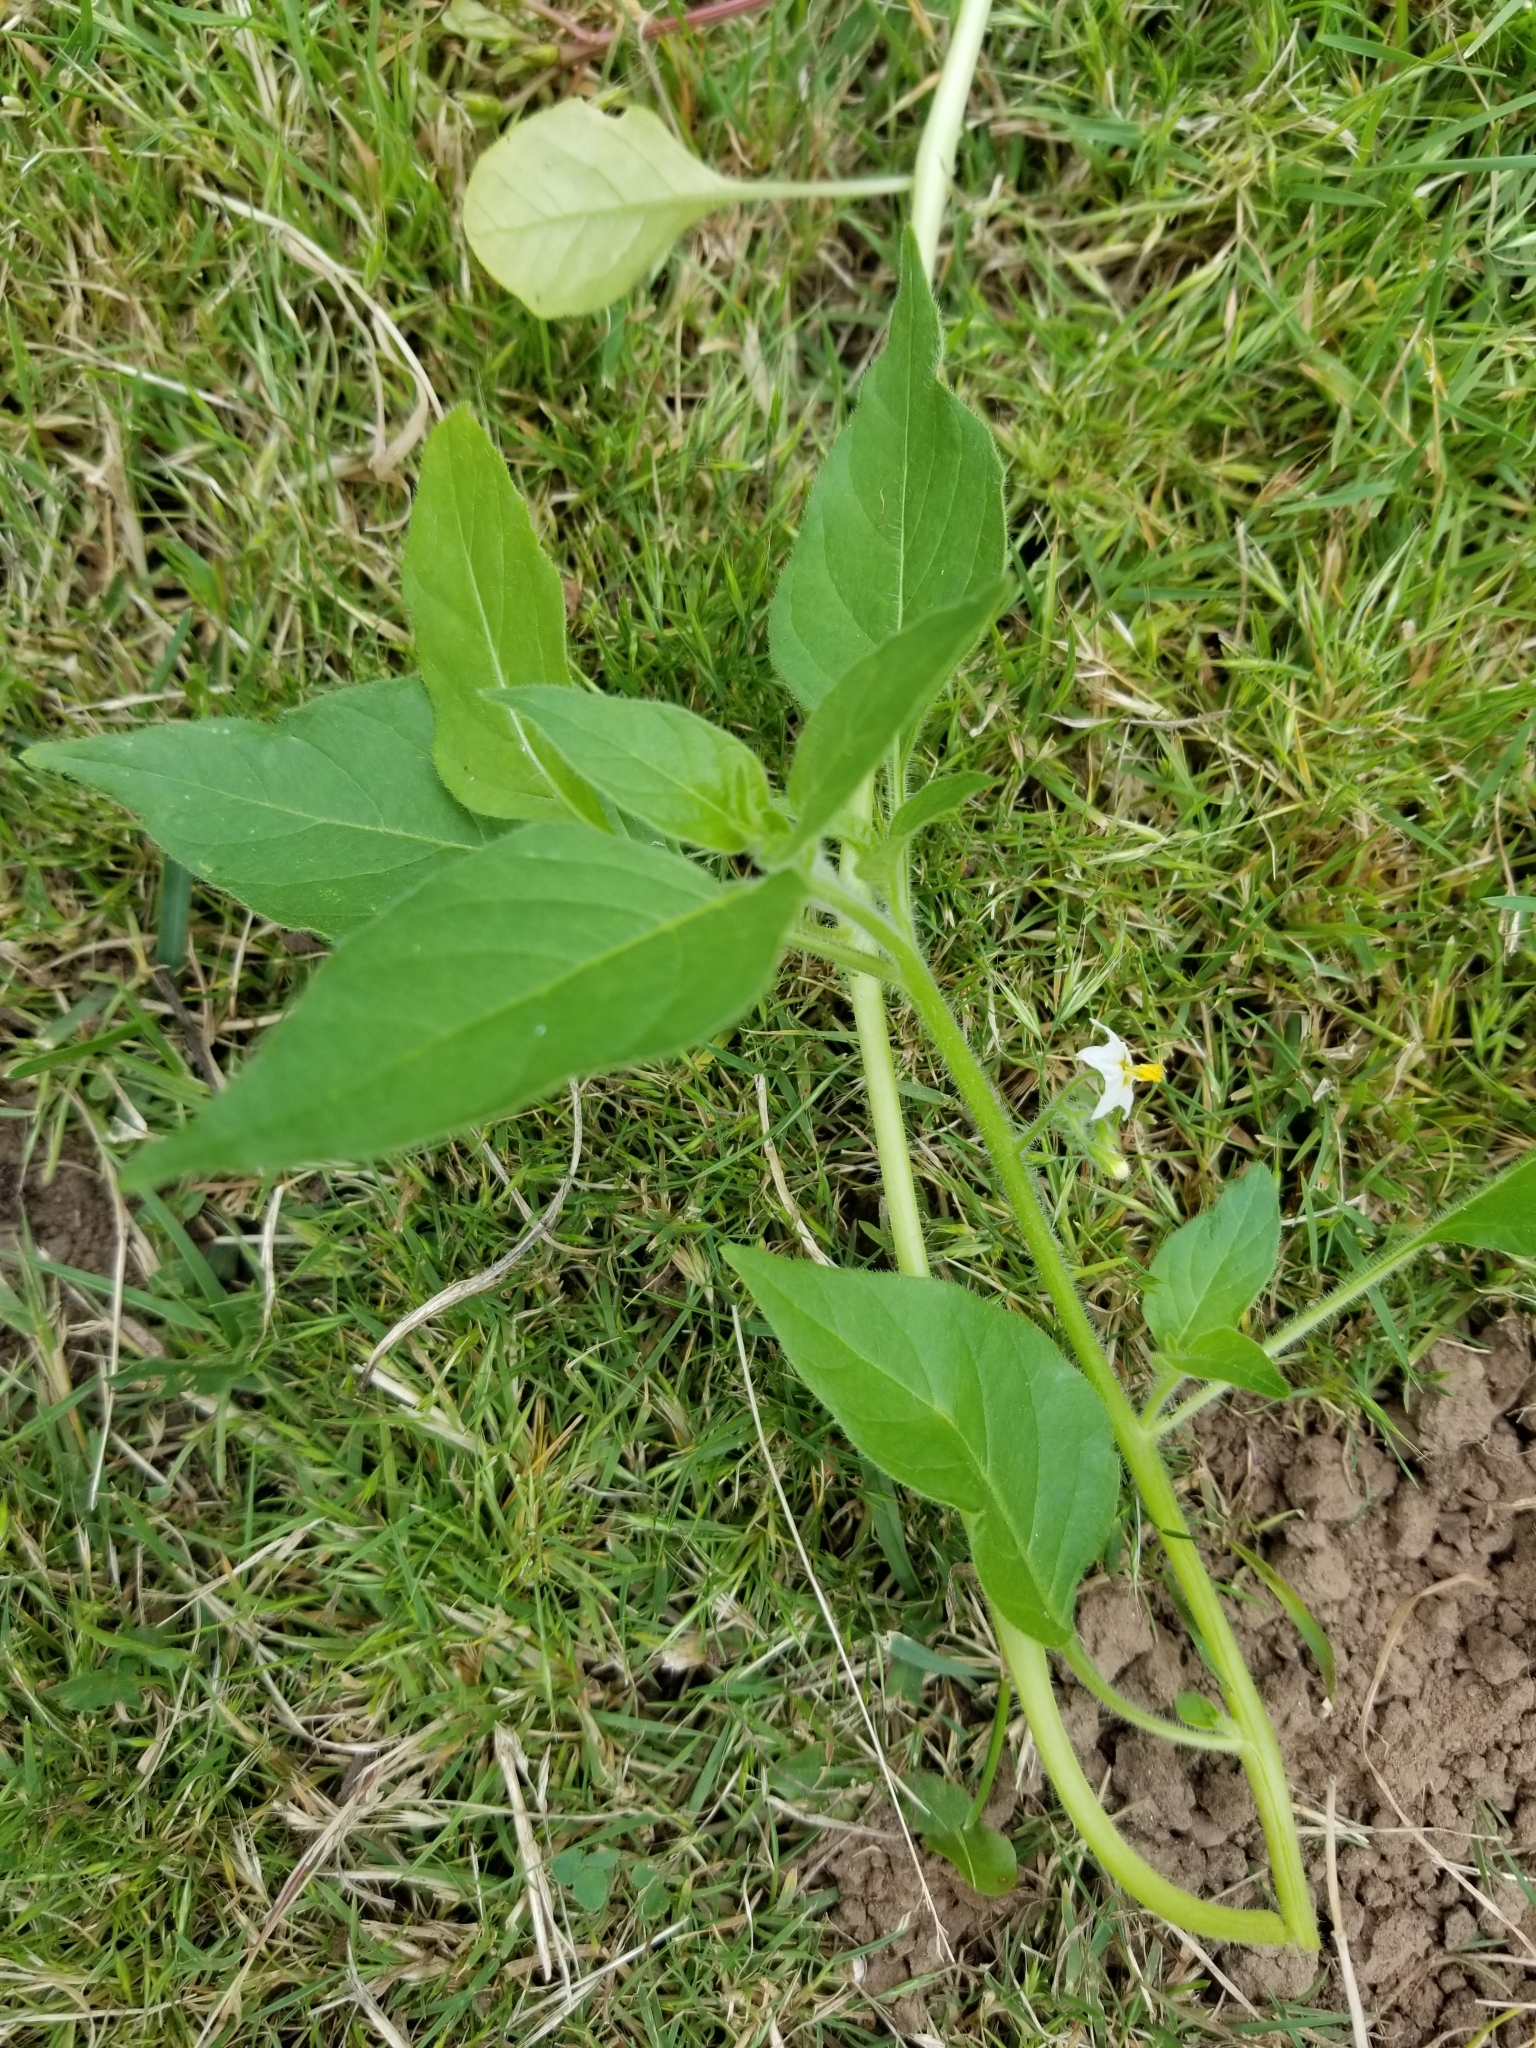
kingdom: Plantae
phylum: Tracheophyta
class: Magnoliopsida
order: Solanales
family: Solanaceae
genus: Solanum
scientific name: Solanum nitidibaccatum
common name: Hairy nightshade
